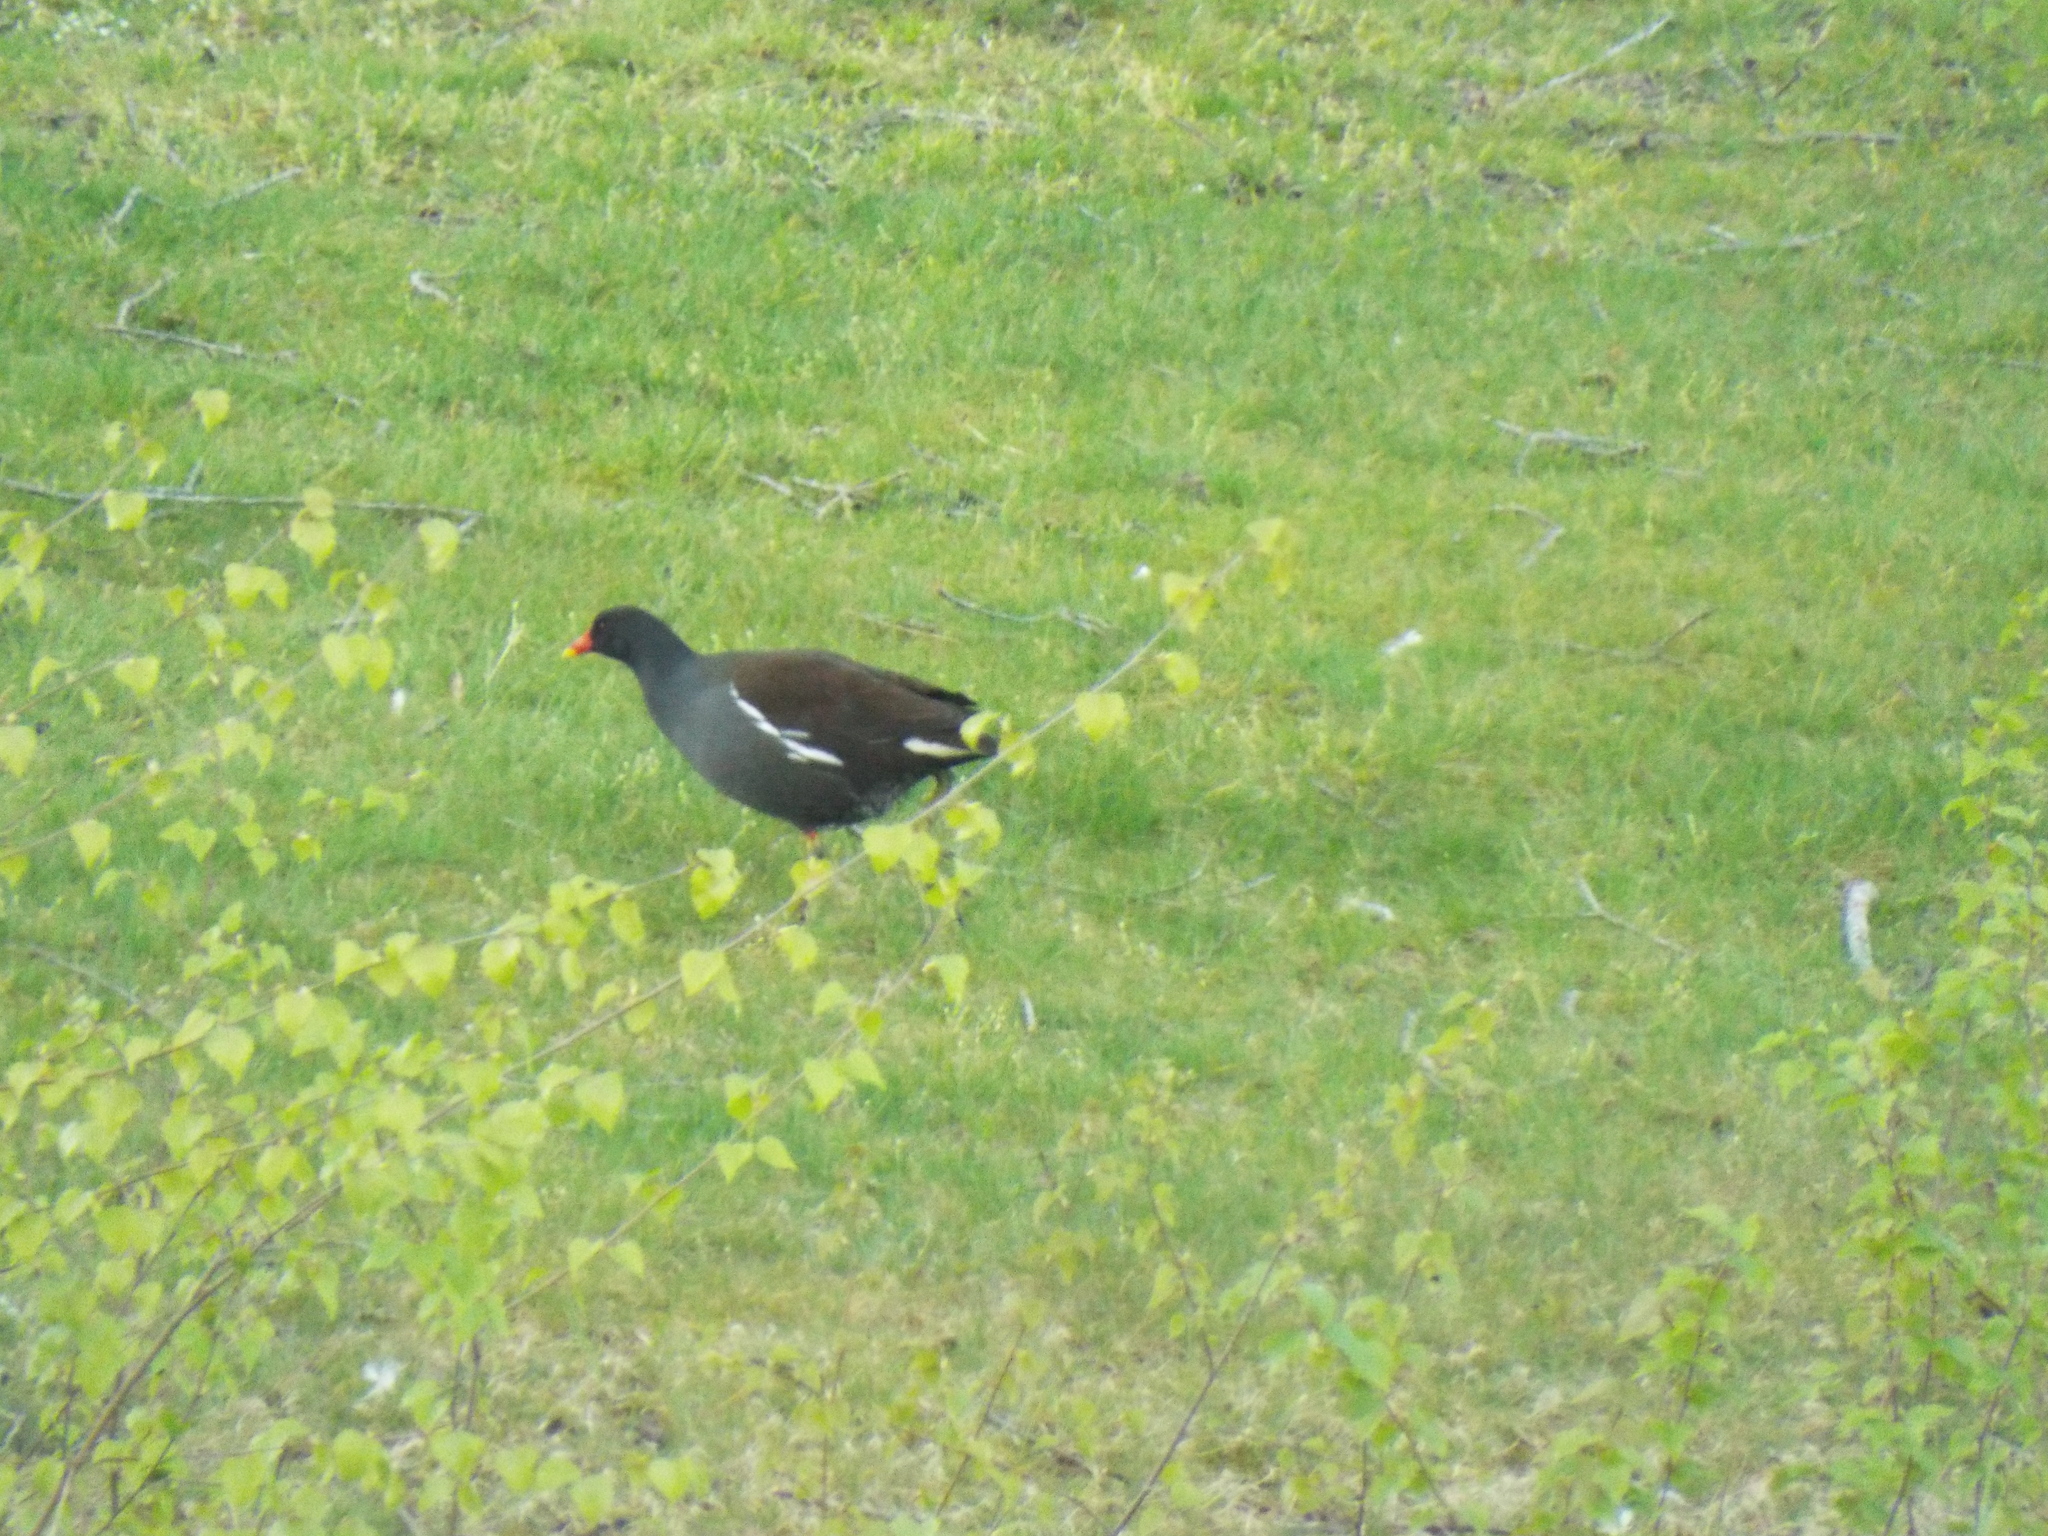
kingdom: Animalia
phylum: Chordata
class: Aves
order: Gruiformes
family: Rallidae
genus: Gallinula
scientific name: Gallinula chloropus
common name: Common moorhen
